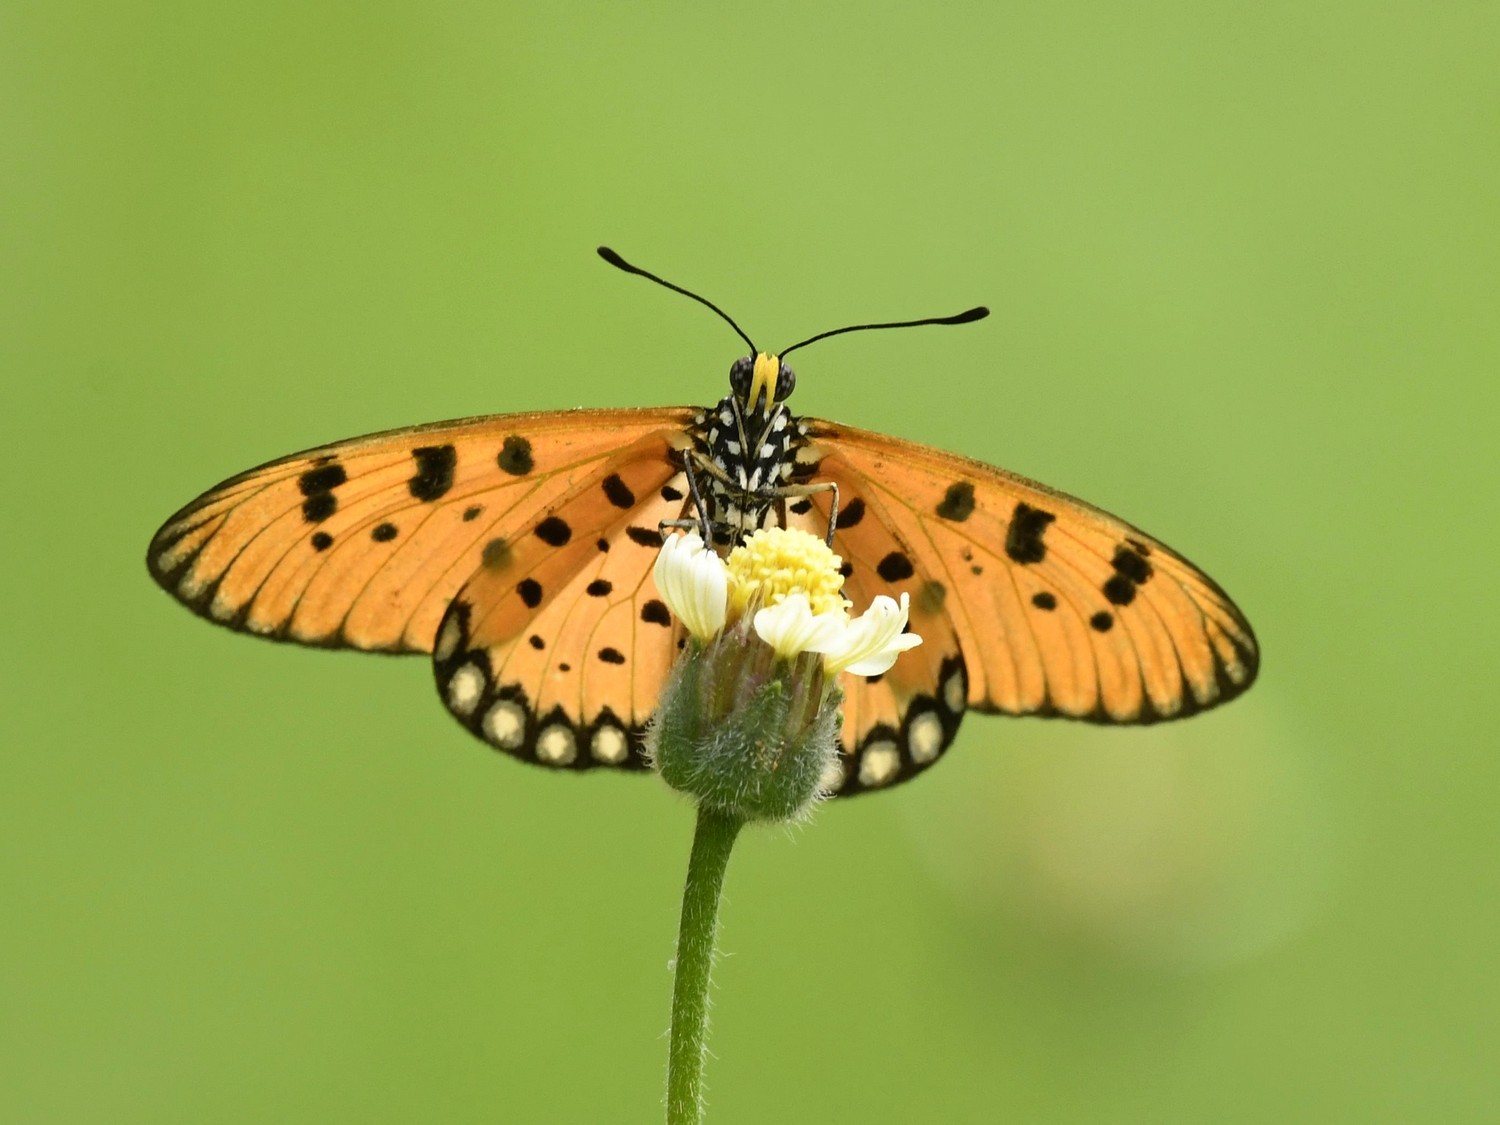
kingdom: Animalia
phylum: Arthropoda
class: Insecta
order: Lepidoptera
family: Nymphalidae
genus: Acraea
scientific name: Acraea terpsicore
